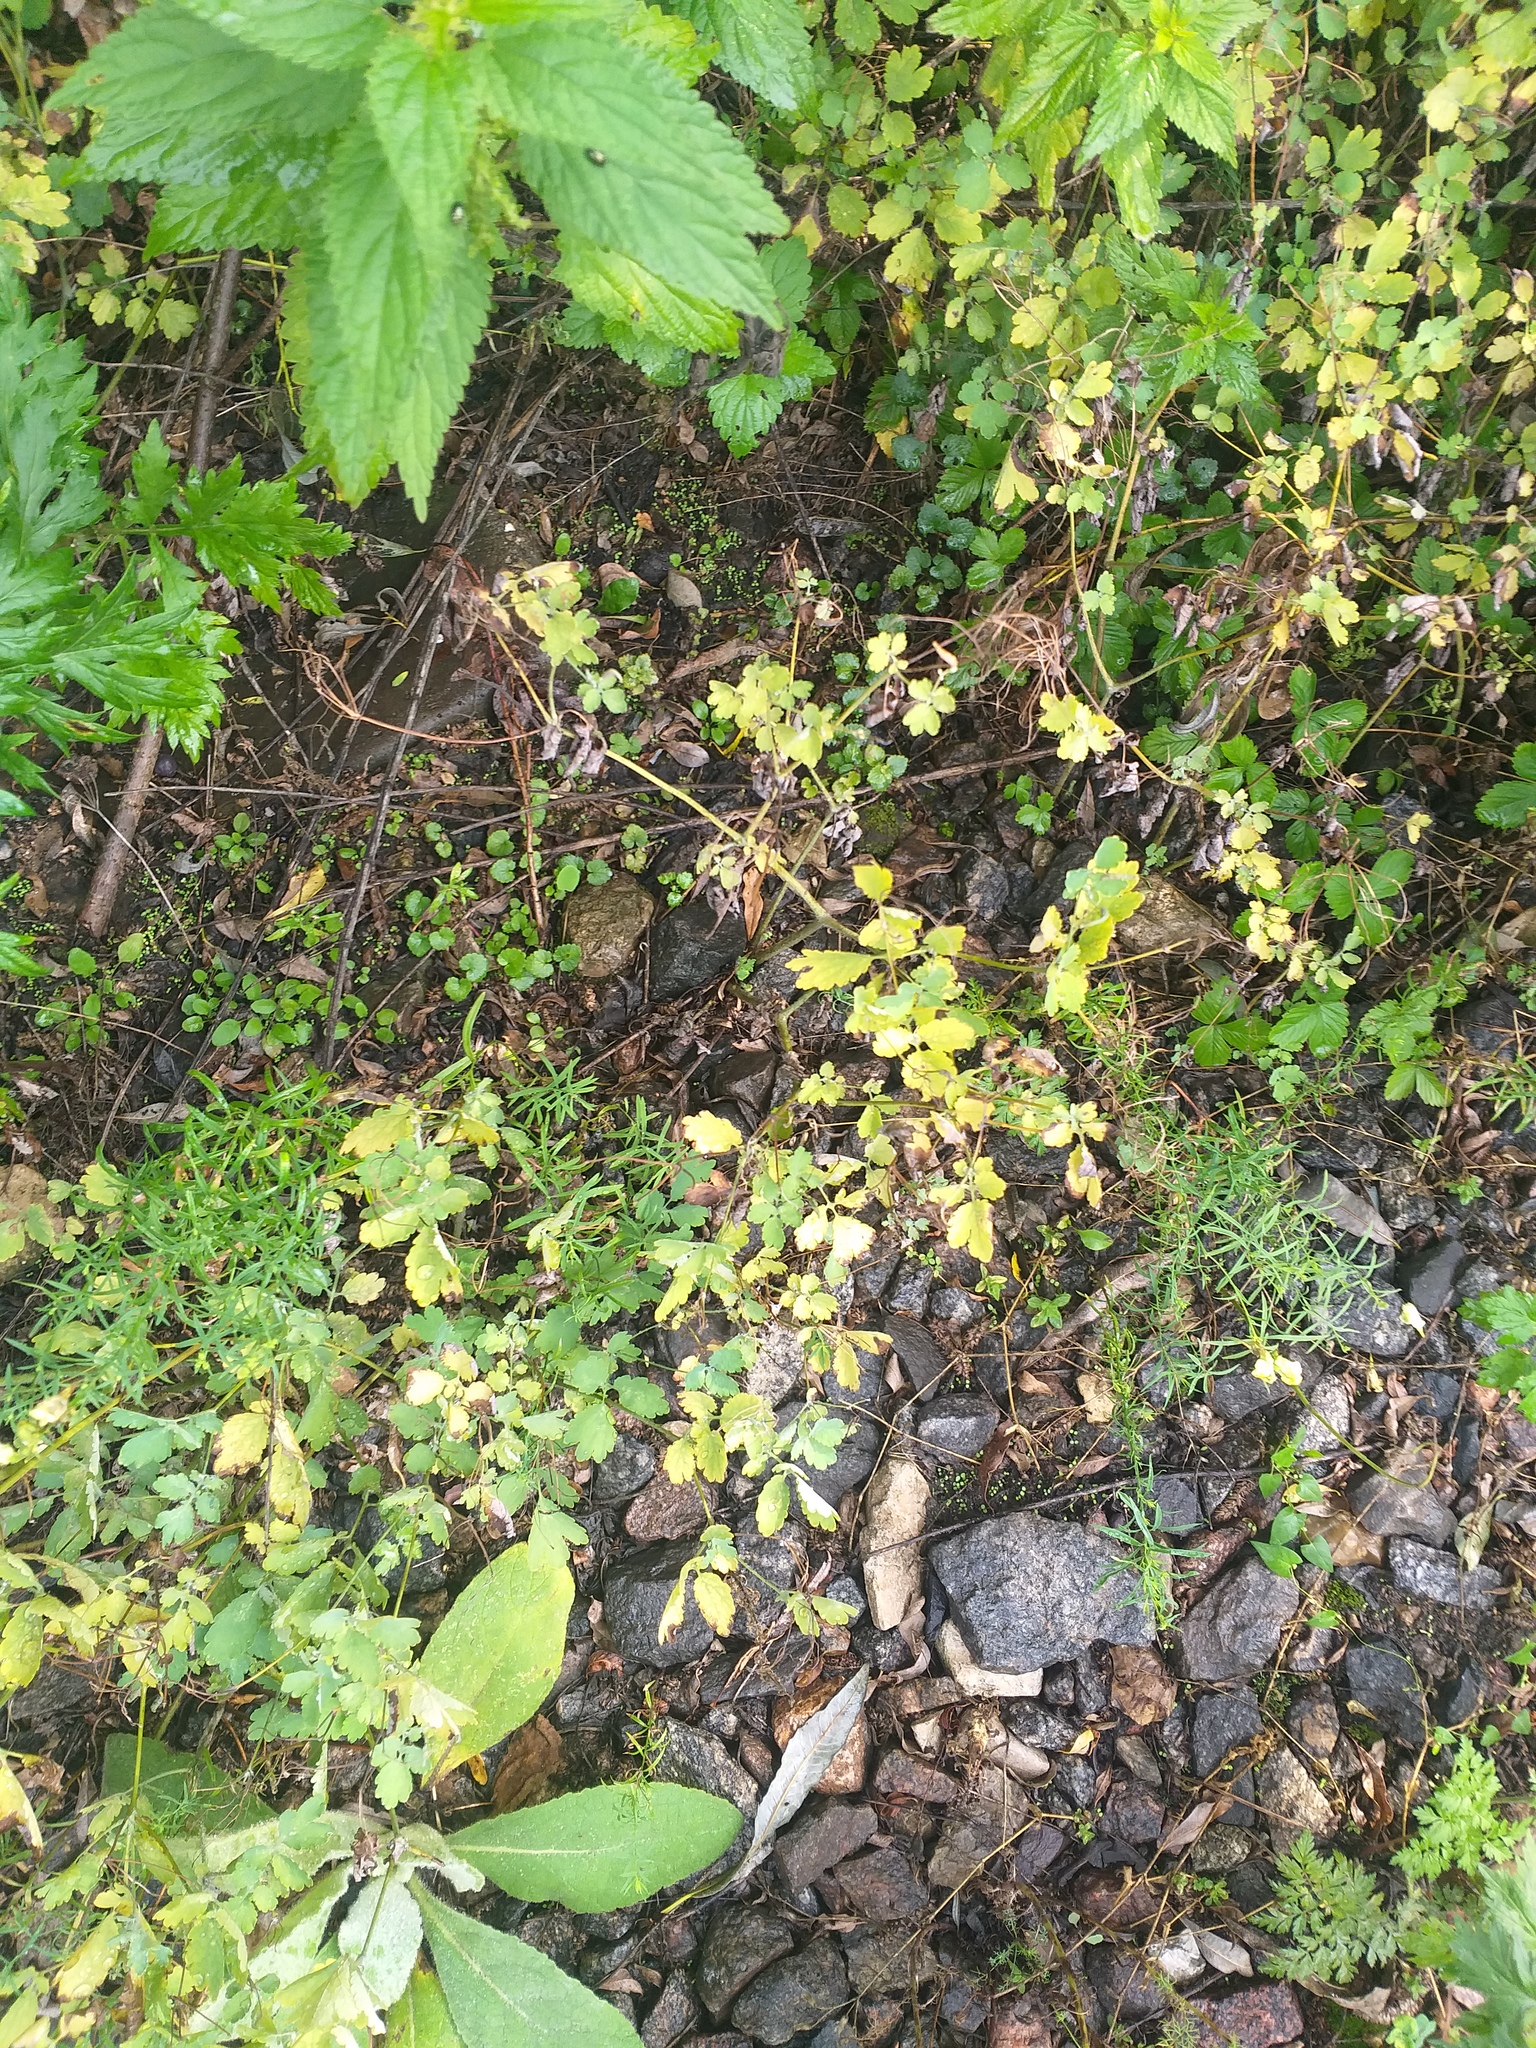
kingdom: Plantae
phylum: Tracheophyta
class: Magnoliopsida
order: Ranunculales
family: Papaveraceae
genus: Chelidonium
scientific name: Chelidonium majus
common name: Greater celandine
